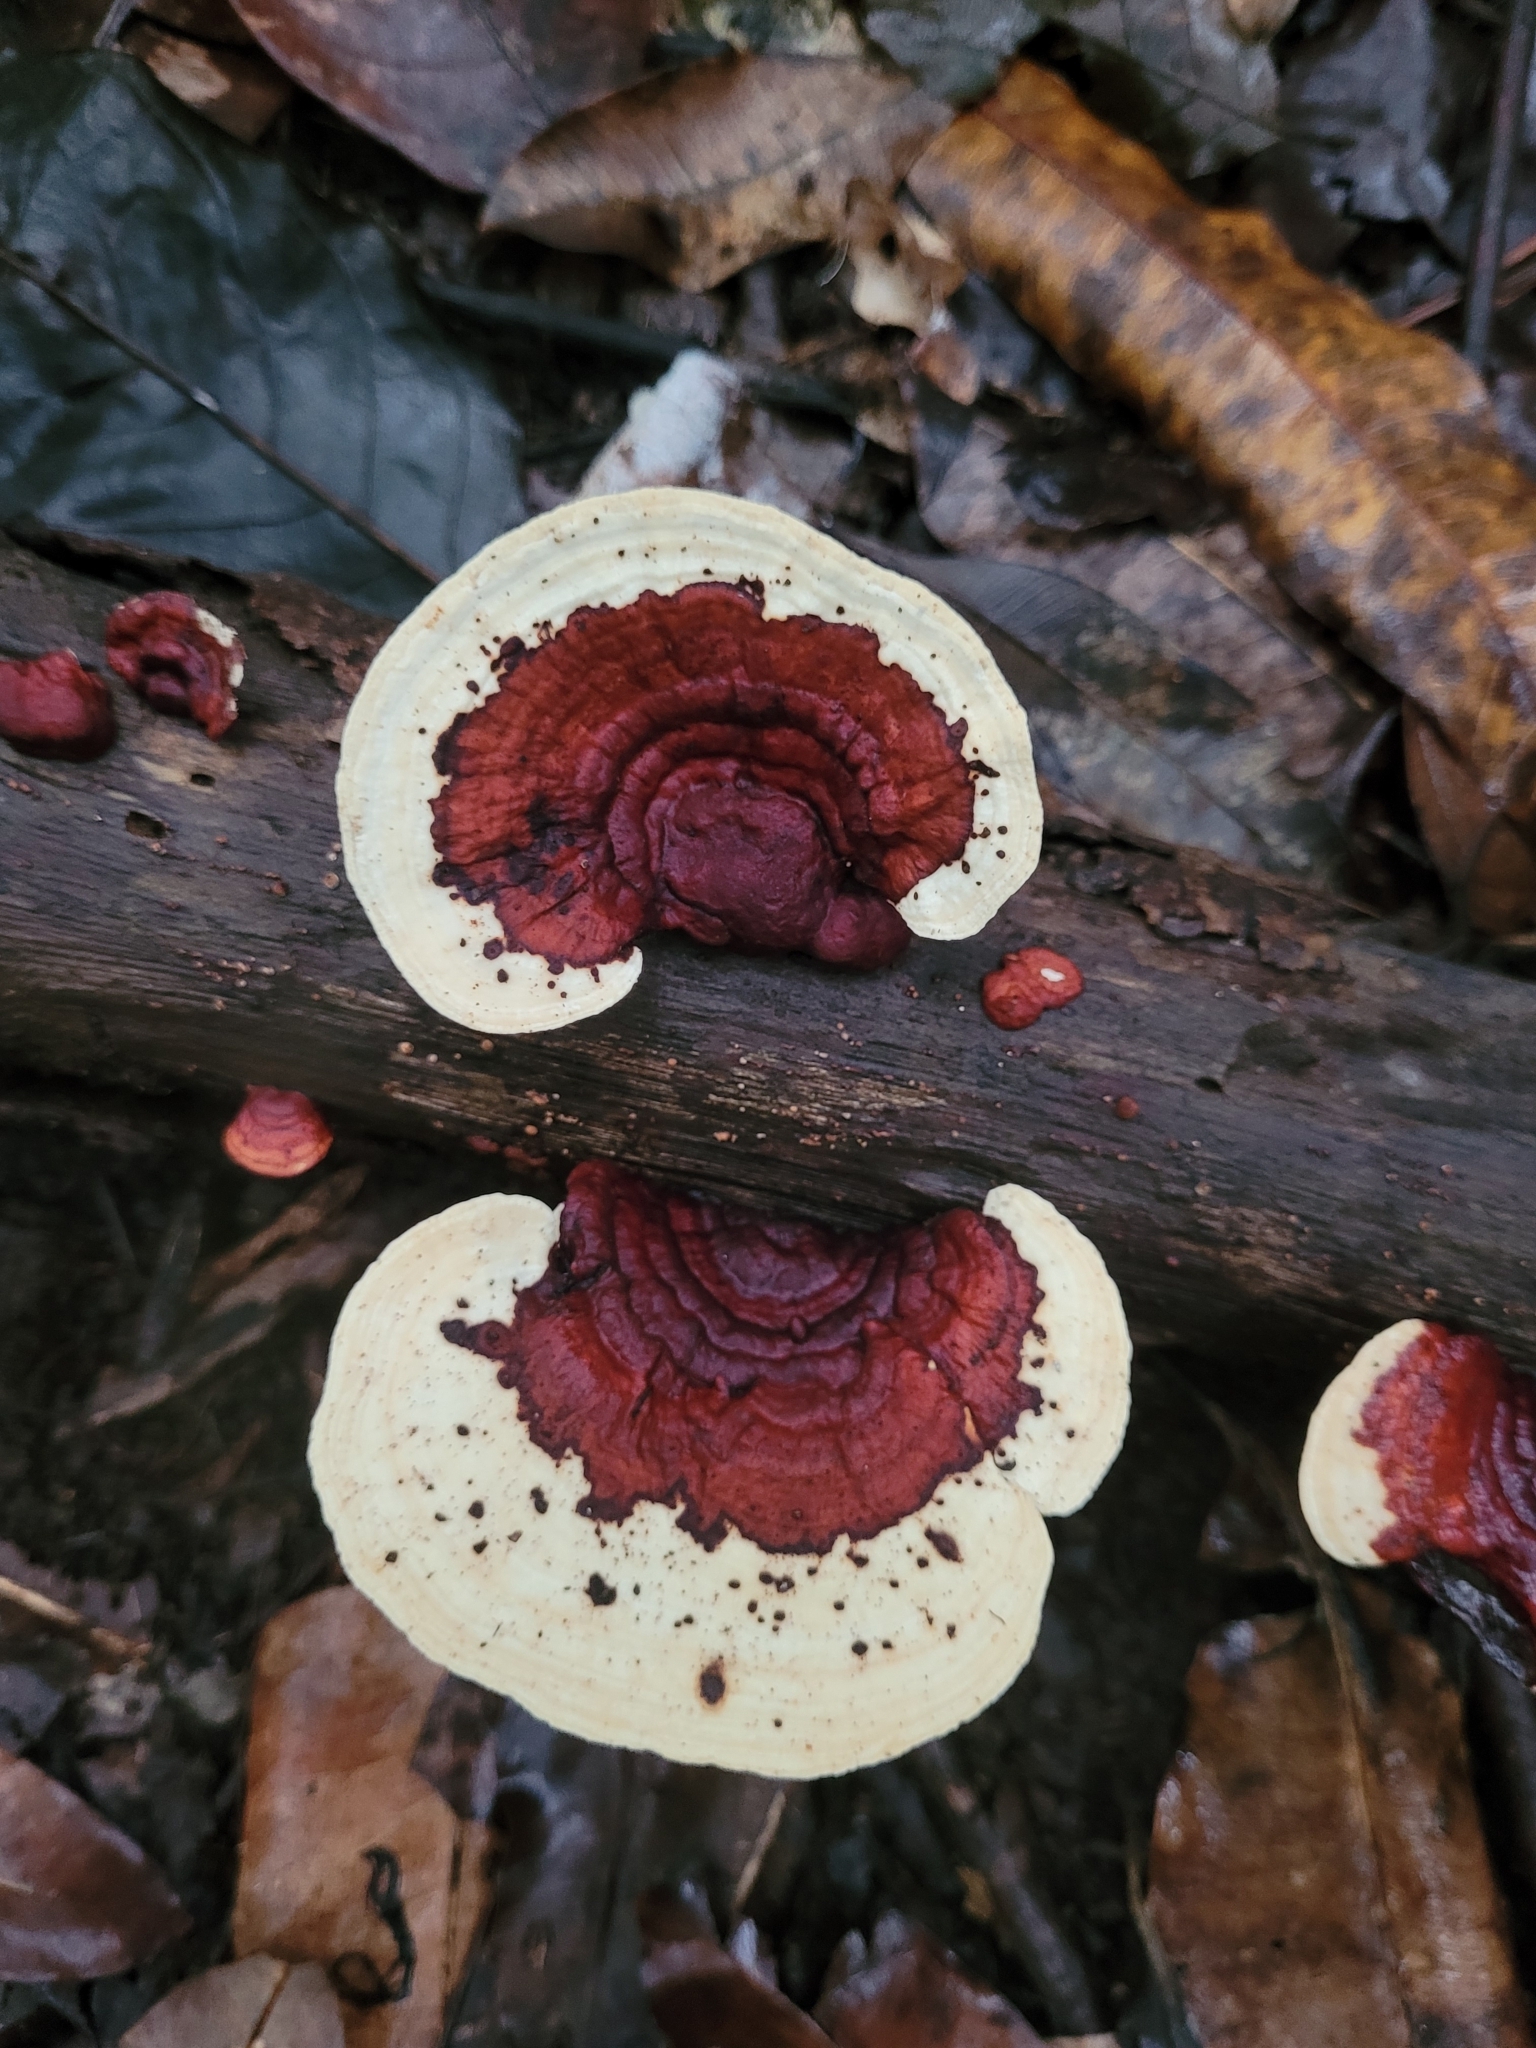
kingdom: Fungi
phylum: Basidiomycota
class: Agaricomycetes
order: Polyporales
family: Polyporaceae
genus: Earliella
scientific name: Earliella scabrosa
